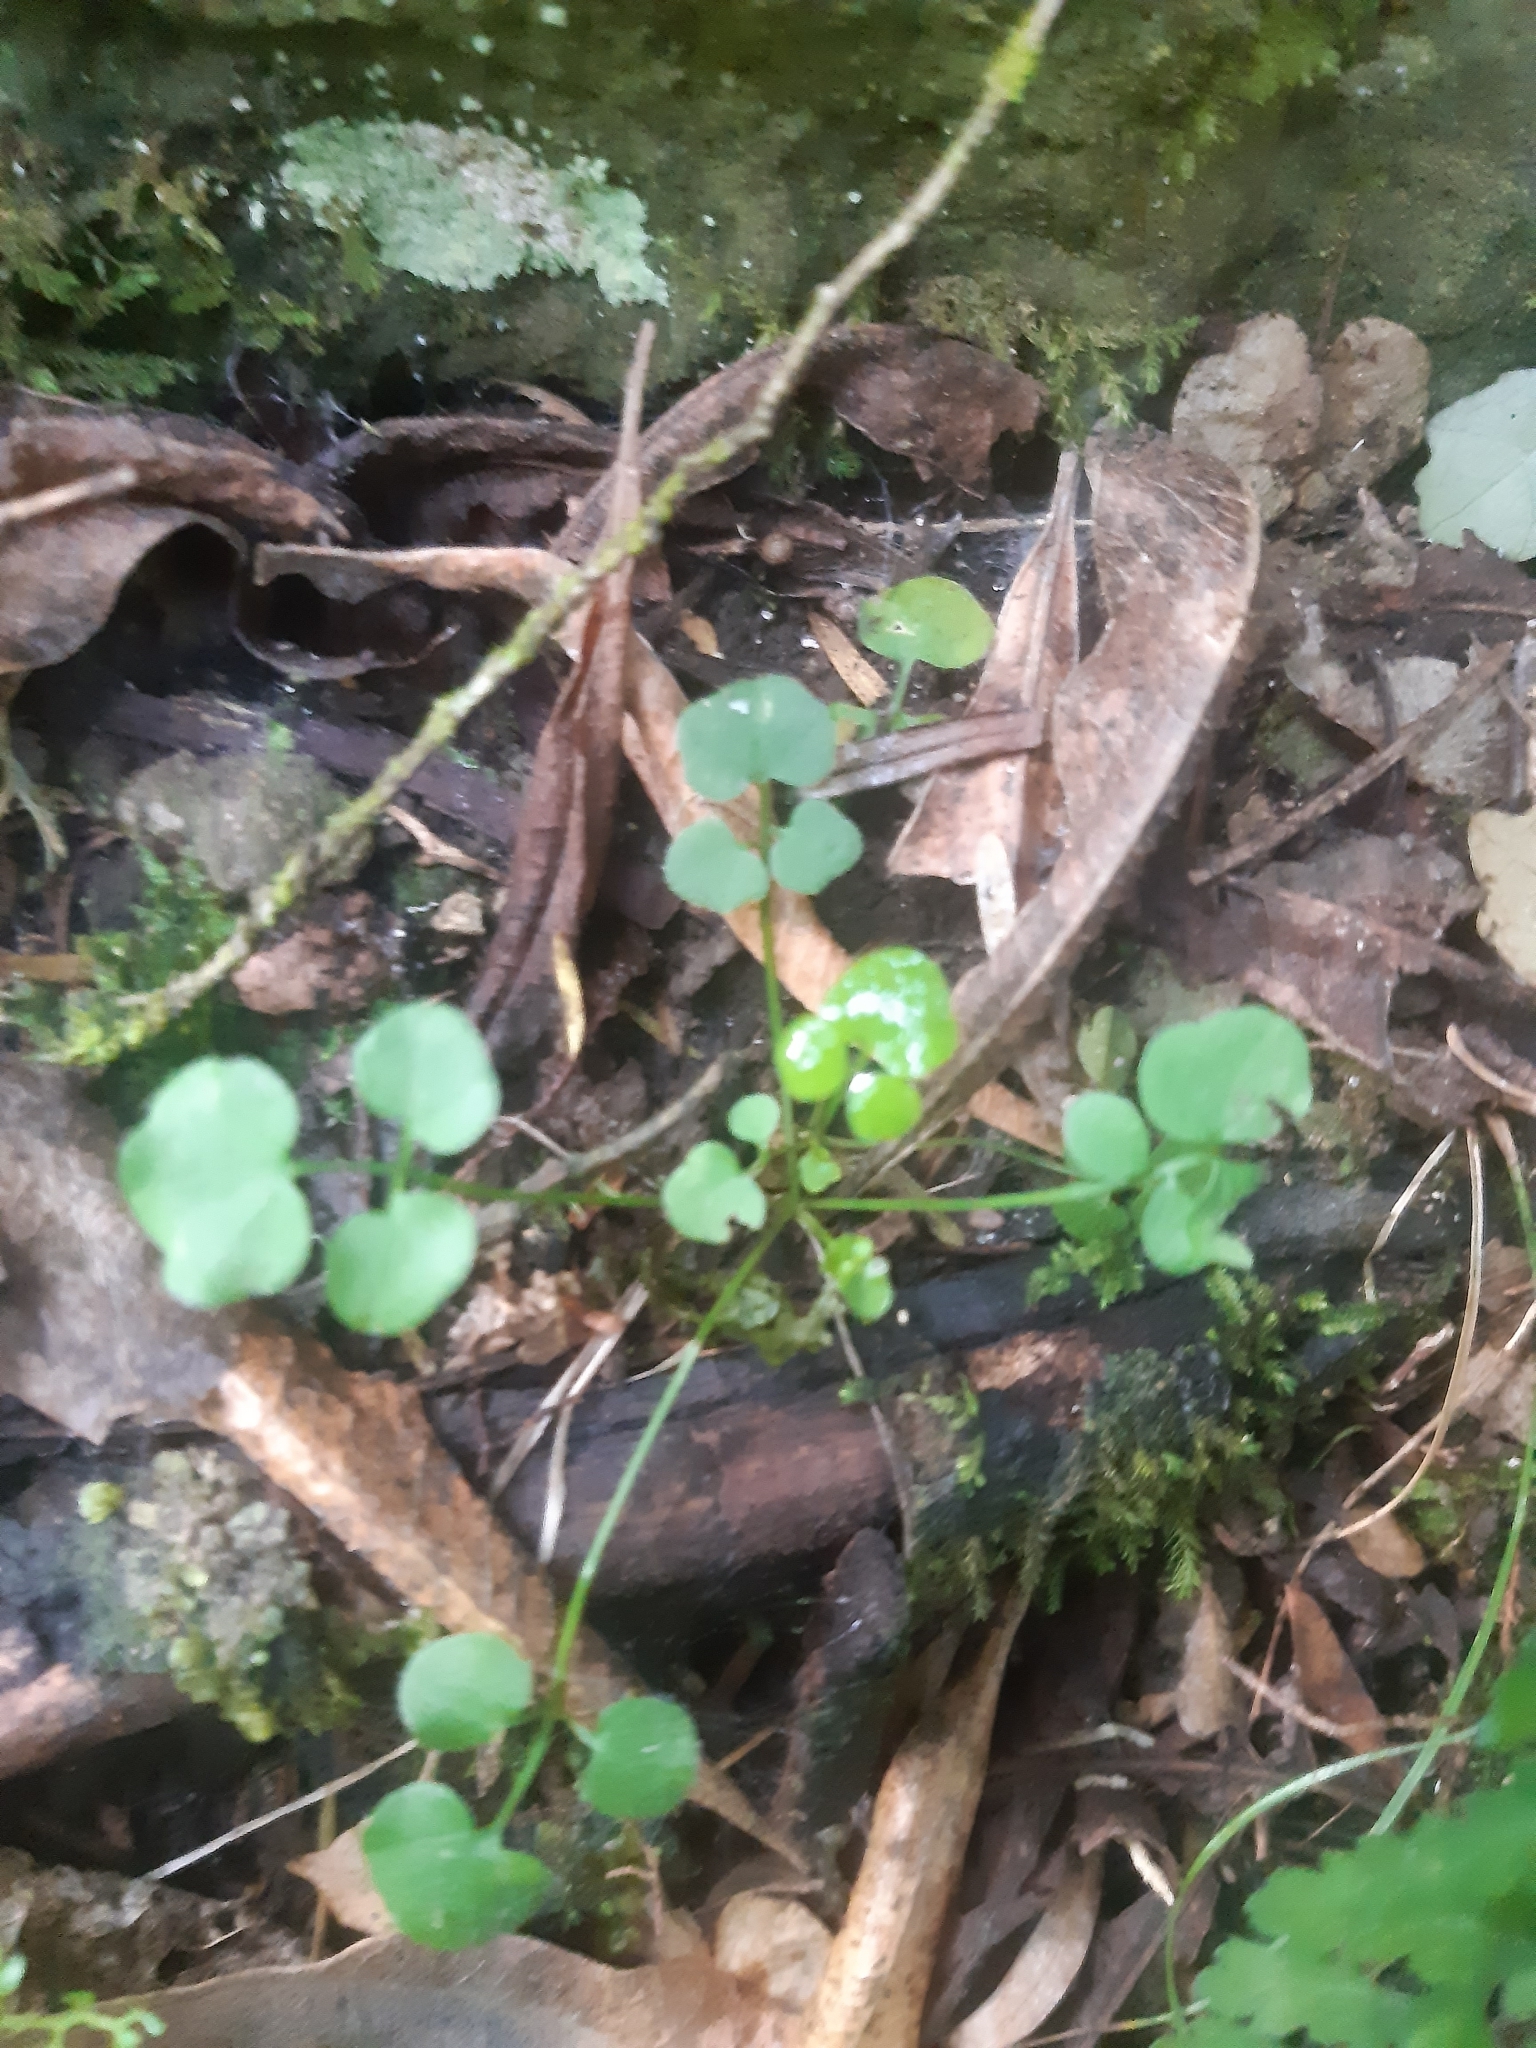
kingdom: Plantae
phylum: Tracheophyta
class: Magnoliopsida
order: Brassicales
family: Brassicaceae
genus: Cardamine
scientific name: Cardamine hirsuta
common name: Hairy bittercress
